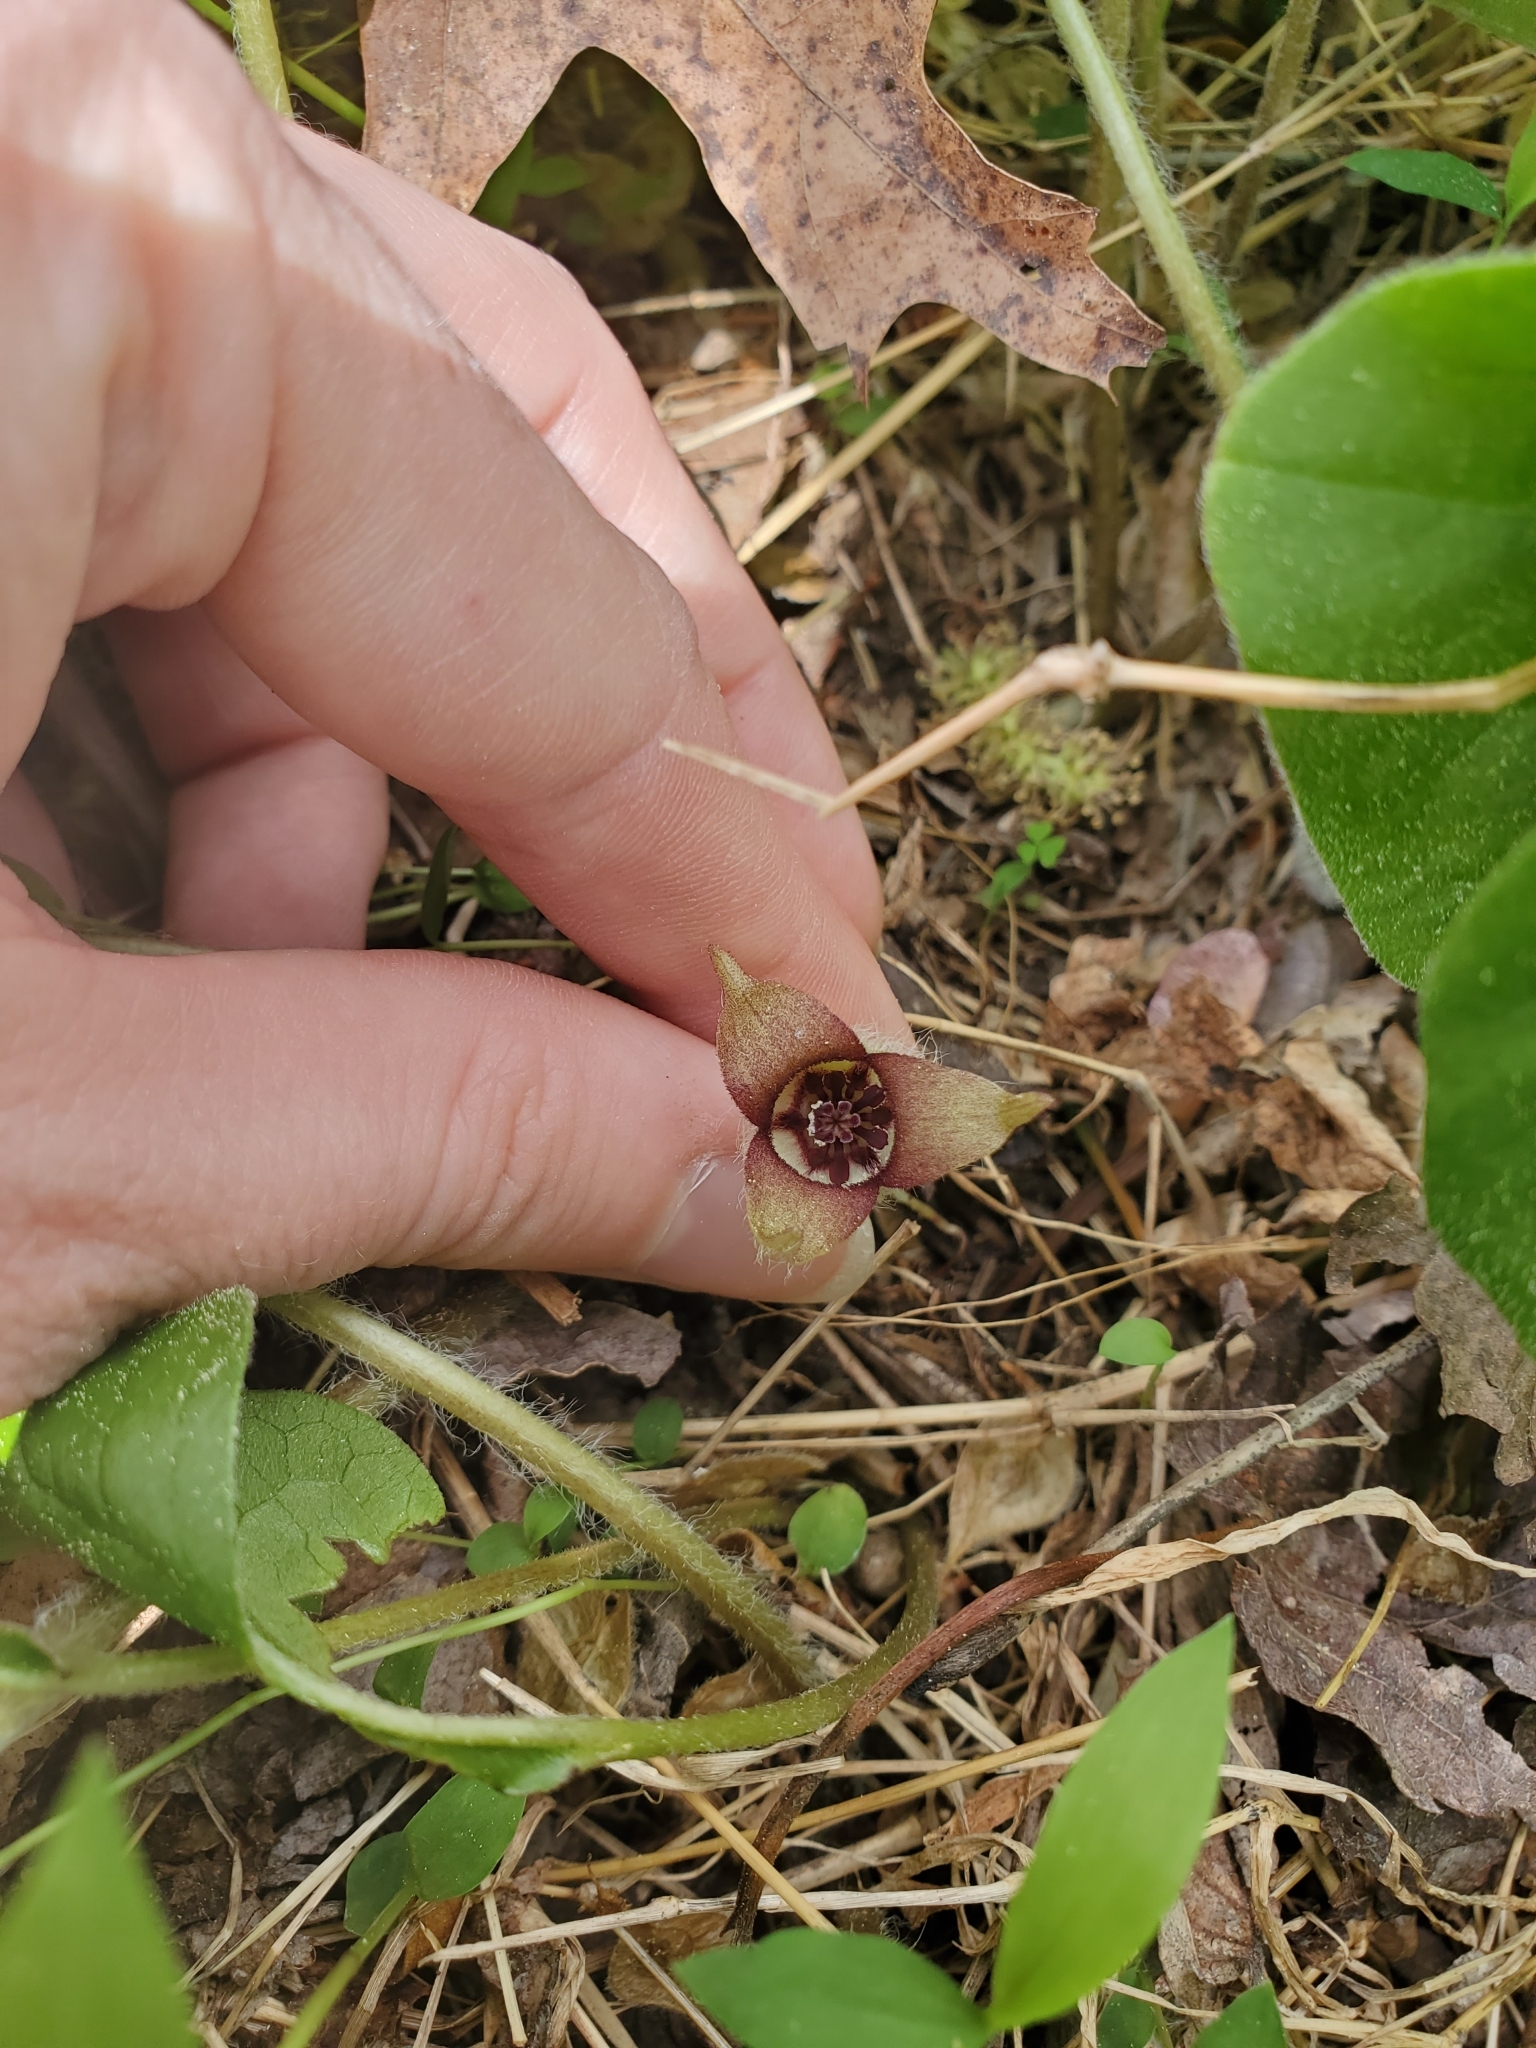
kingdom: Plantae
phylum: Tracheophyta
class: Magnoliopsida
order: Piperales
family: Aristolochiaceae
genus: Asarum
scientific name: Asarum canadense
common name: Wild ginger
